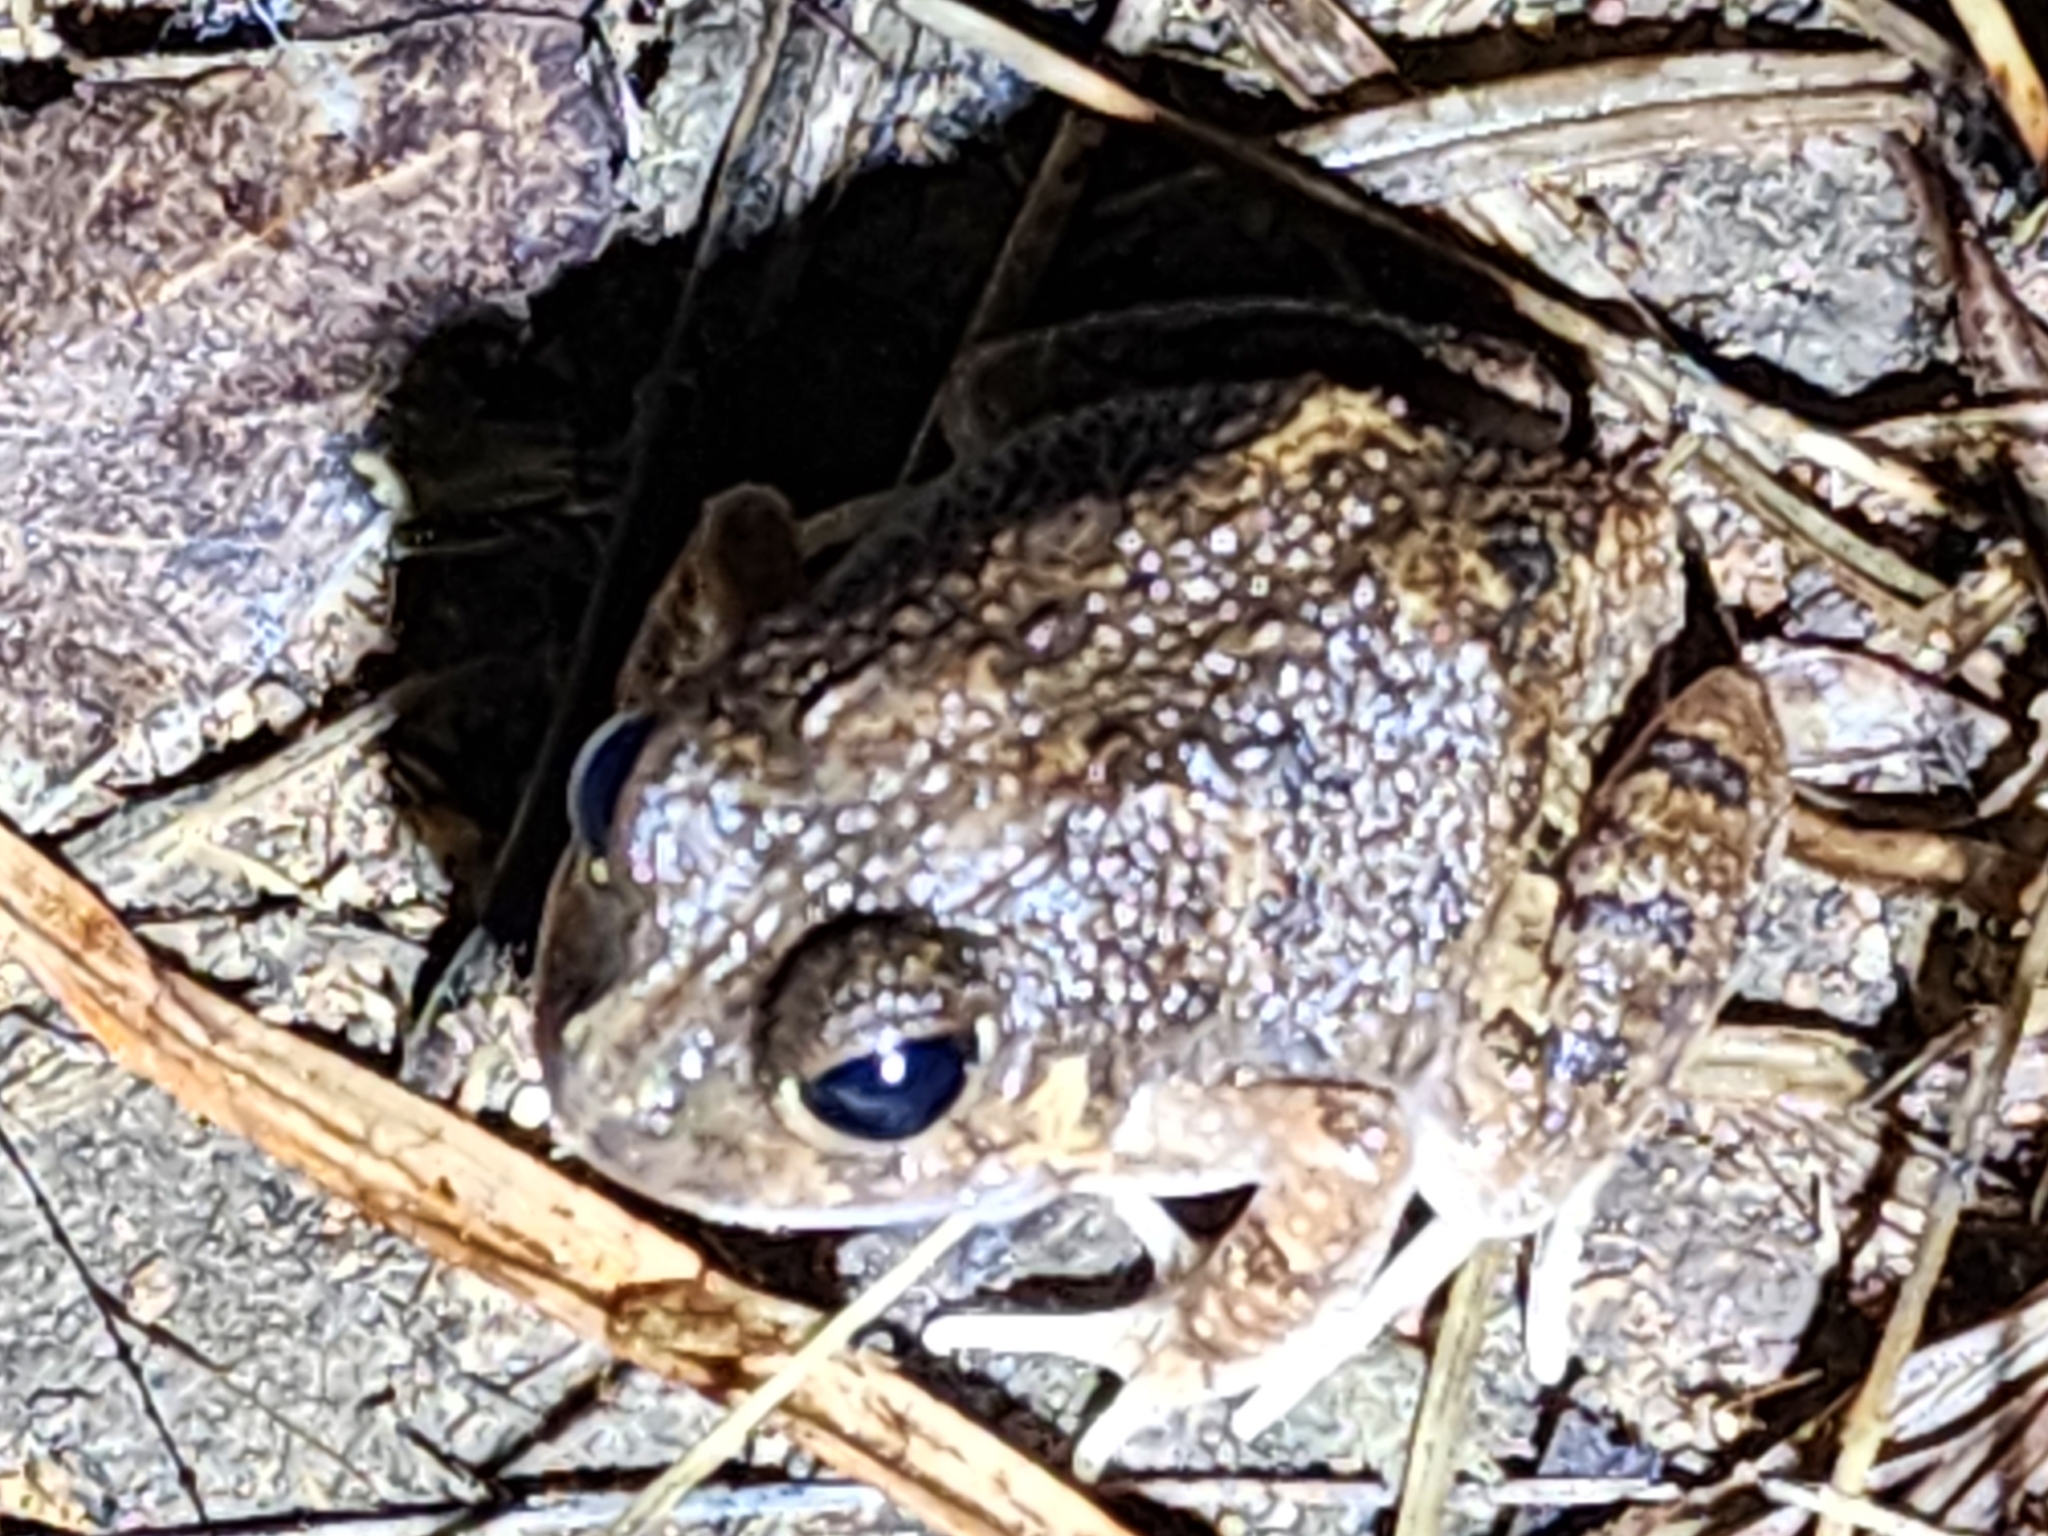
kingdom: Animalia
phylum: Chordata
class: Amphibia
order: Anura
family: Limnodynastidae
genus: Platyplectrum
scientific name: Platyplectrum ornatum
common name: Ornate burrowing frog
